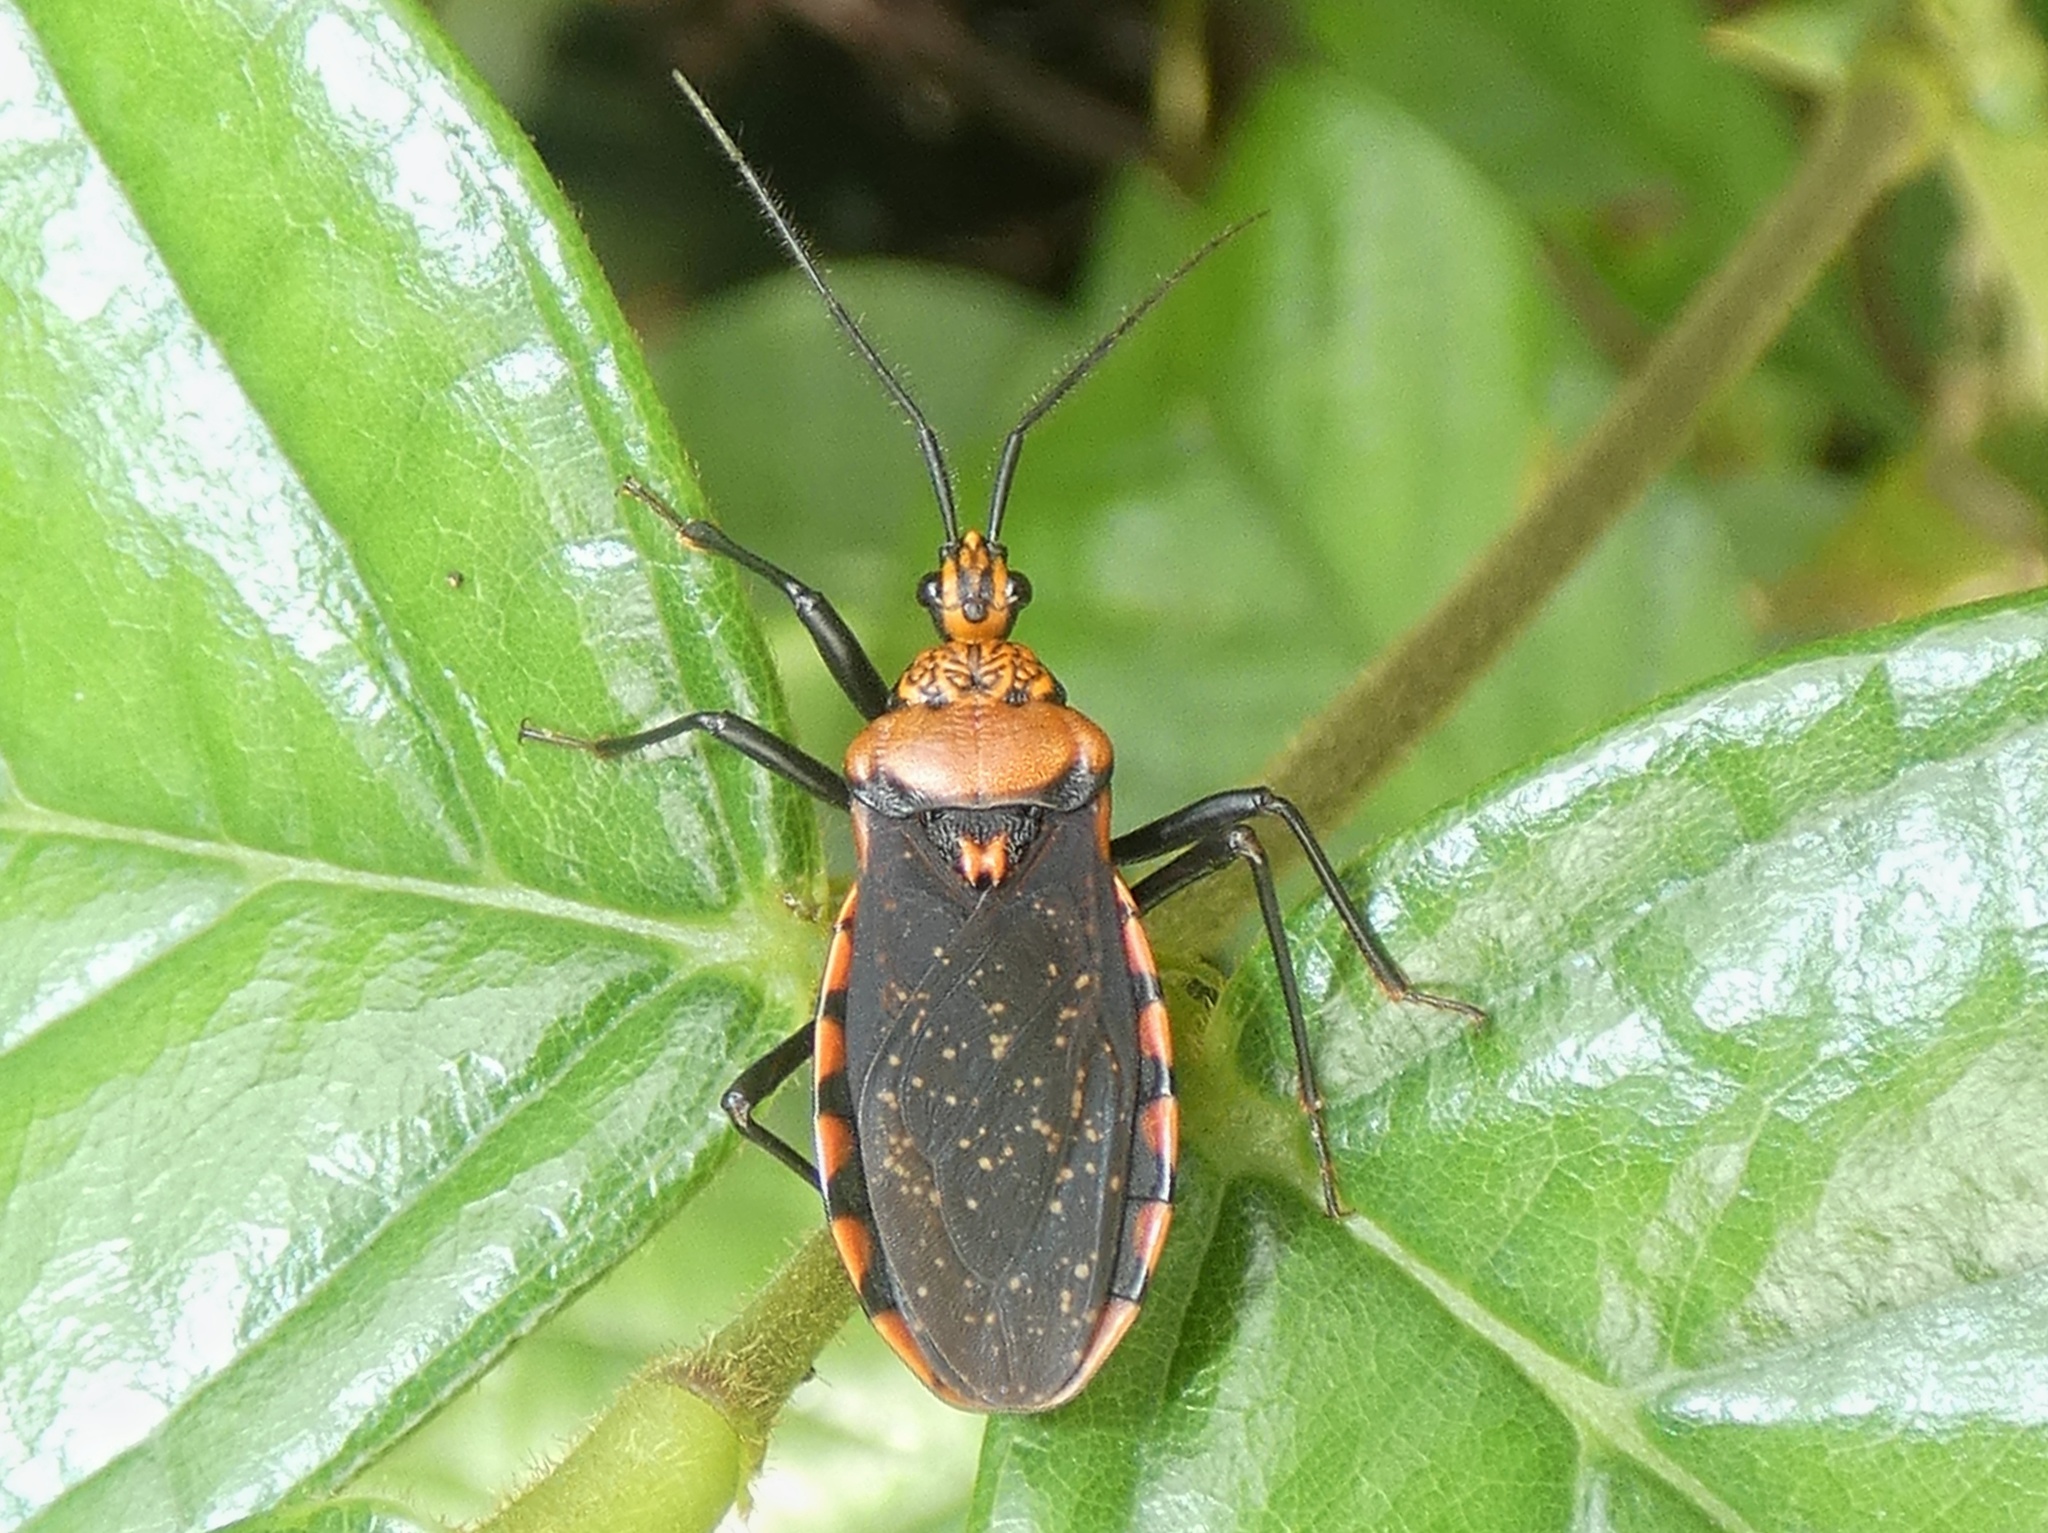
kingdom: Animalia
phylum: Arthropoda
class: Insecta
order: Hemiptera
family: Reduviidae
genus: Rhiginia
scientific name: Rhiginia conspersa
